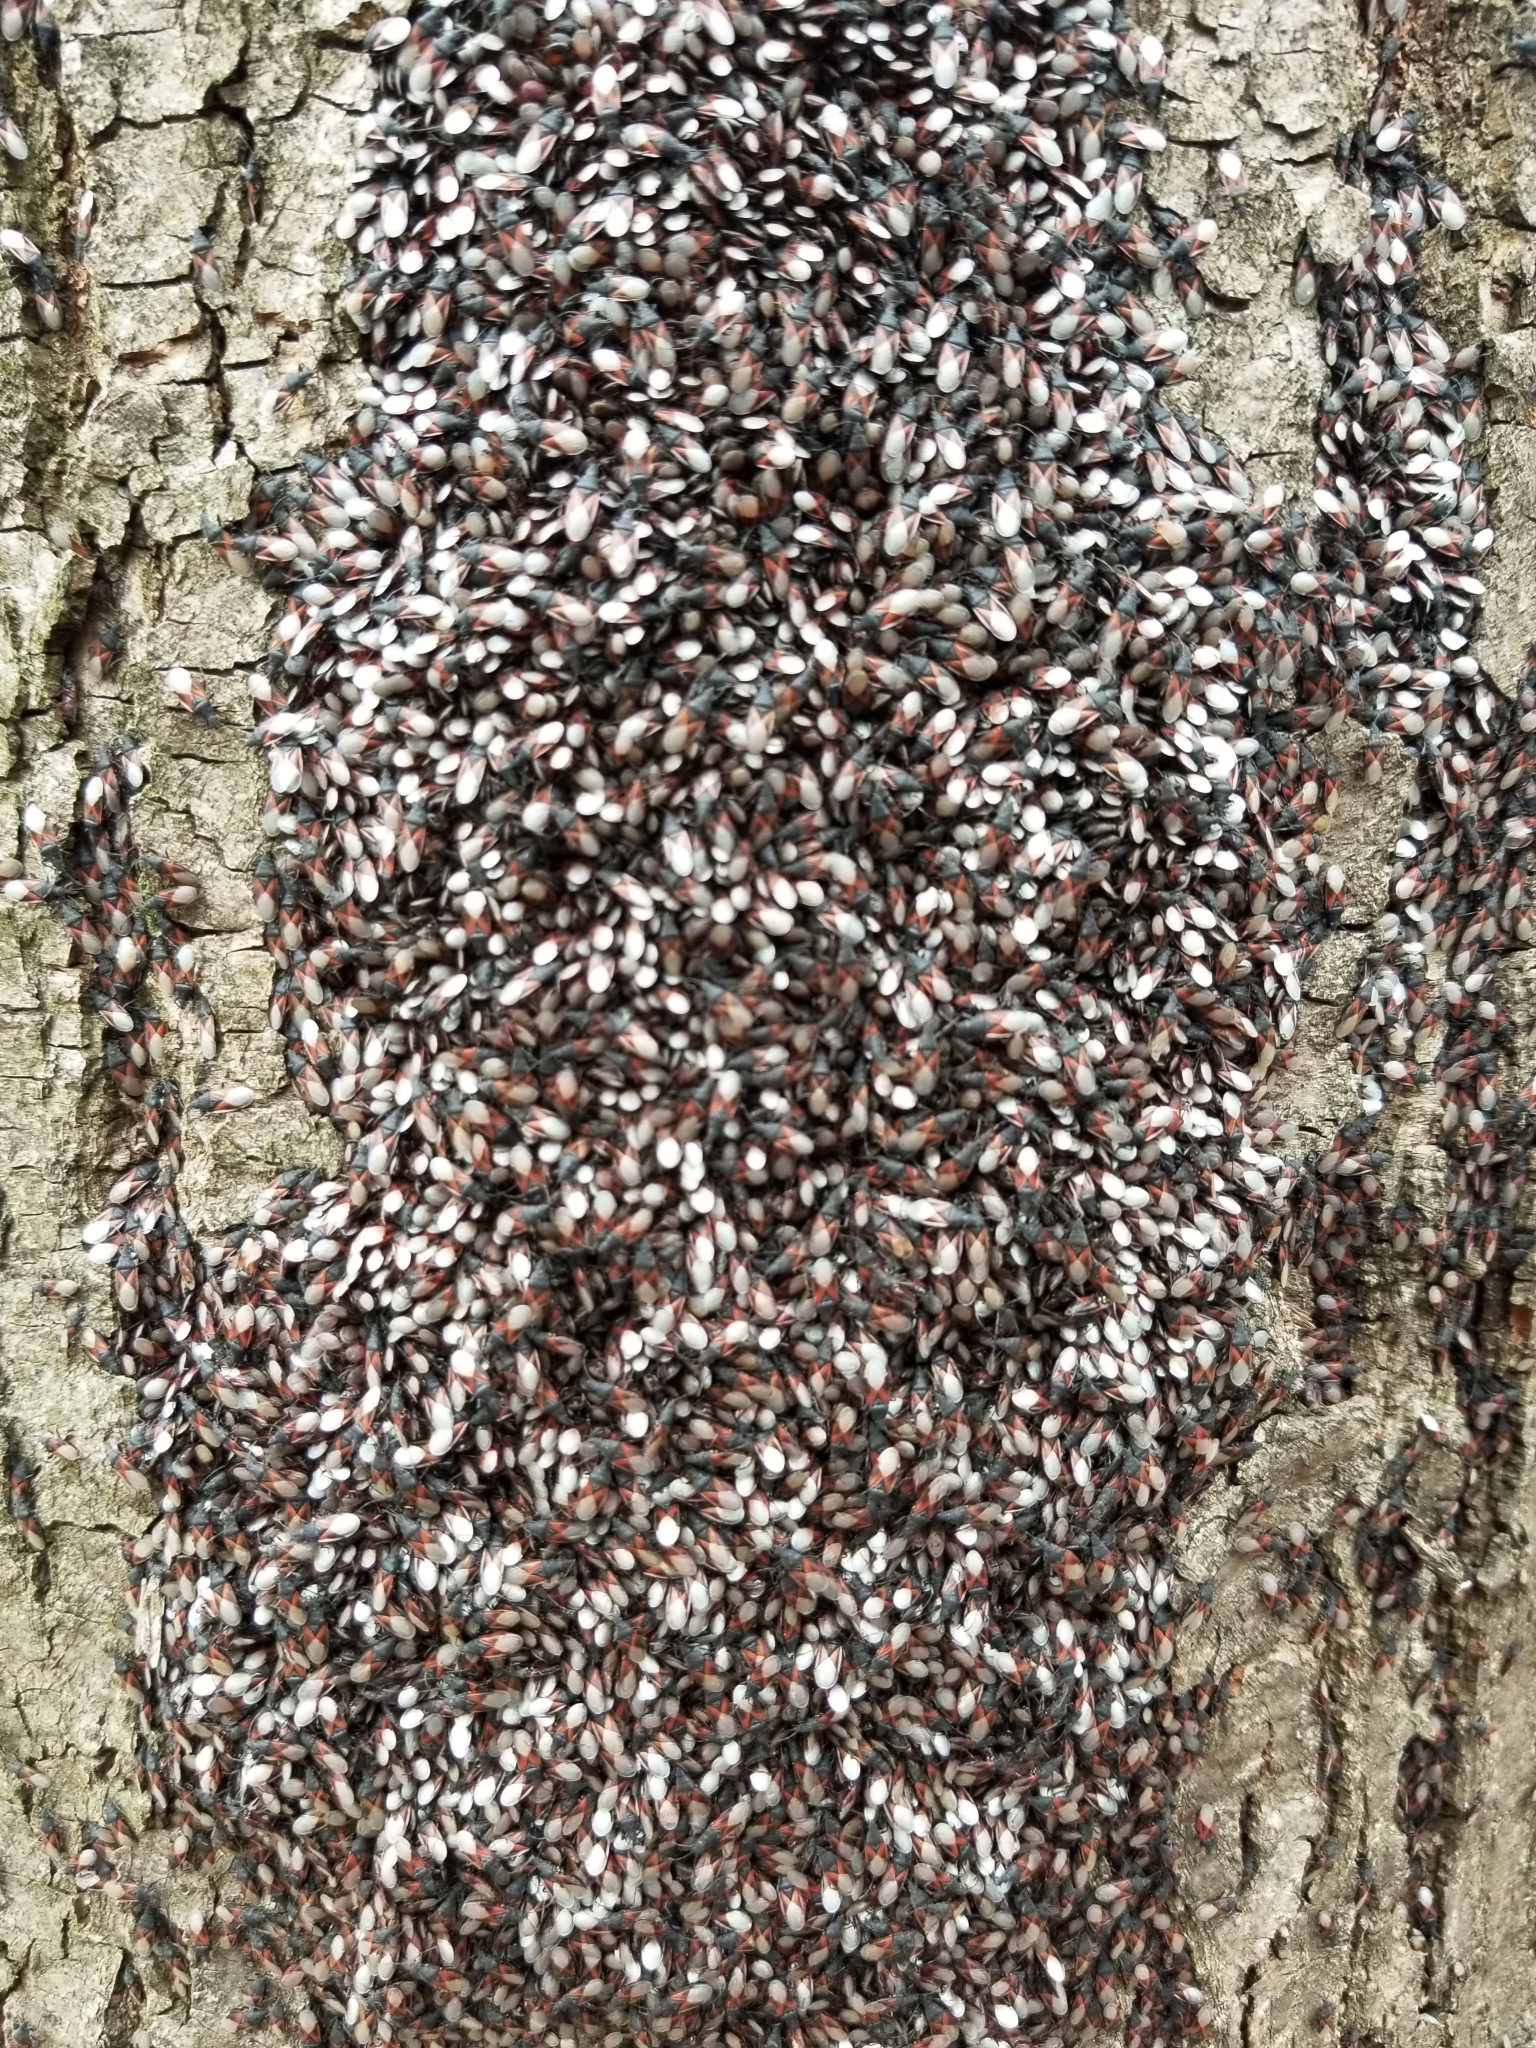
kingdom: Animalia
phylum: Arthropoda
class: Insecta
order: Hemiptera
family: Oxycarenidae
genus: Oxycarenus
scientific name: Oxycarenus lavaterae
